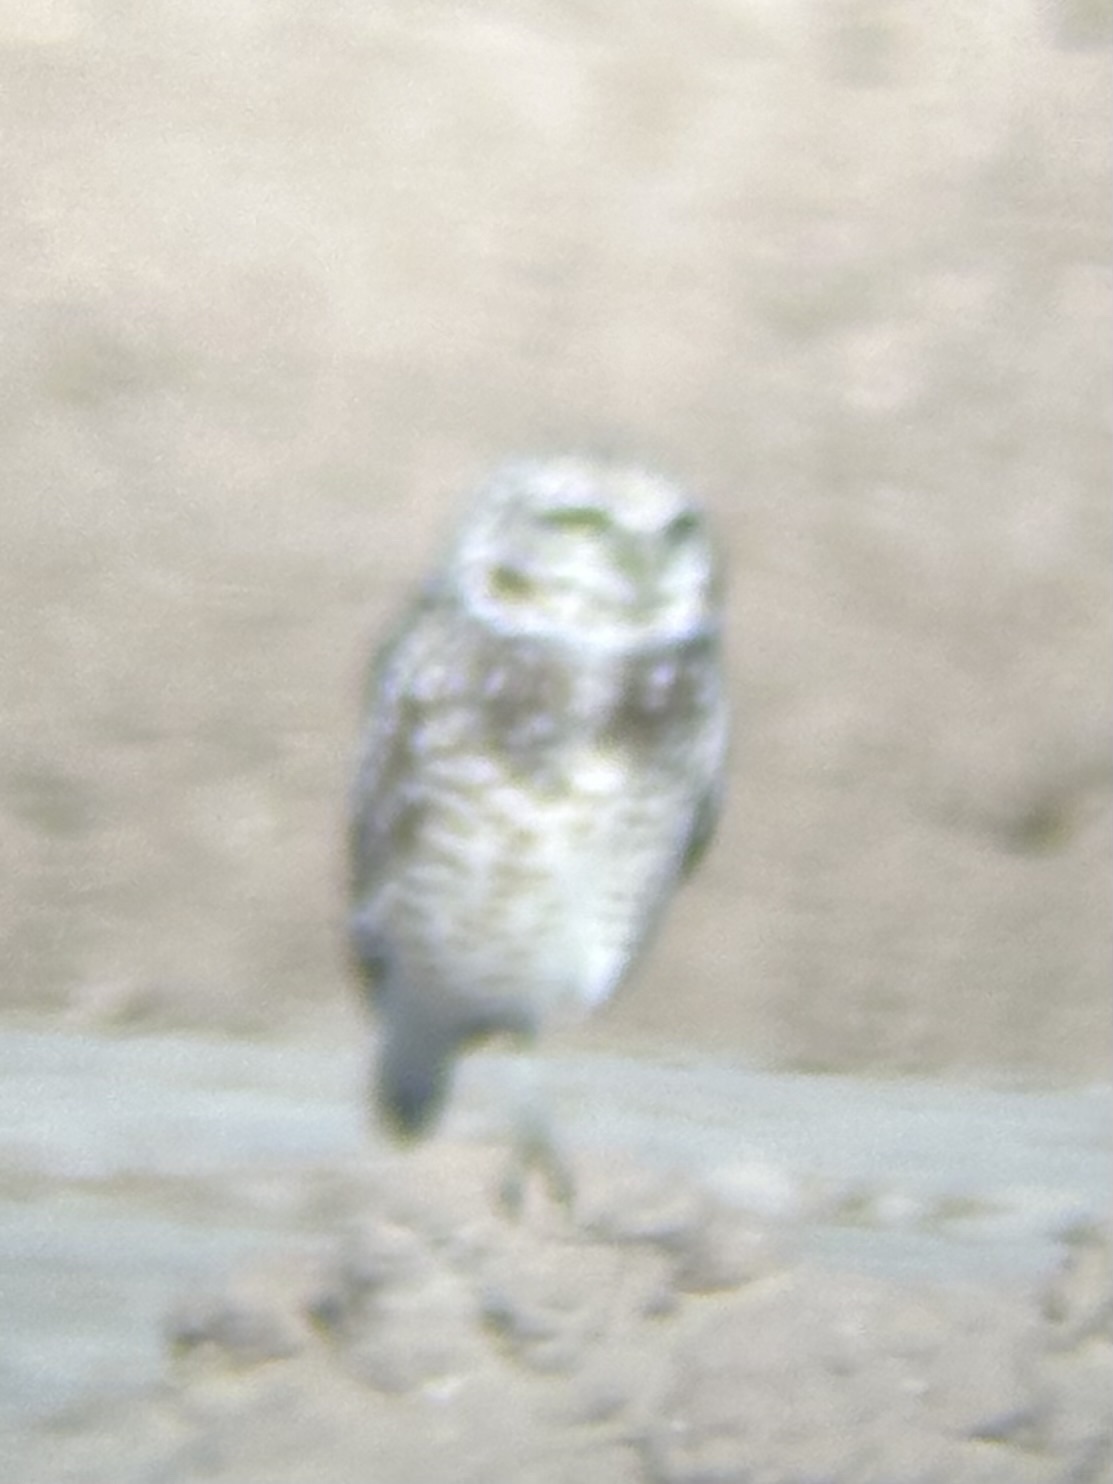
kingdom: Animalia
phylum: Chordata
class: Aves
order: Strigiformes
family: Strigidae
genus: Athene
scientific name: Athene cunicularia
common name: Burrowing owl
